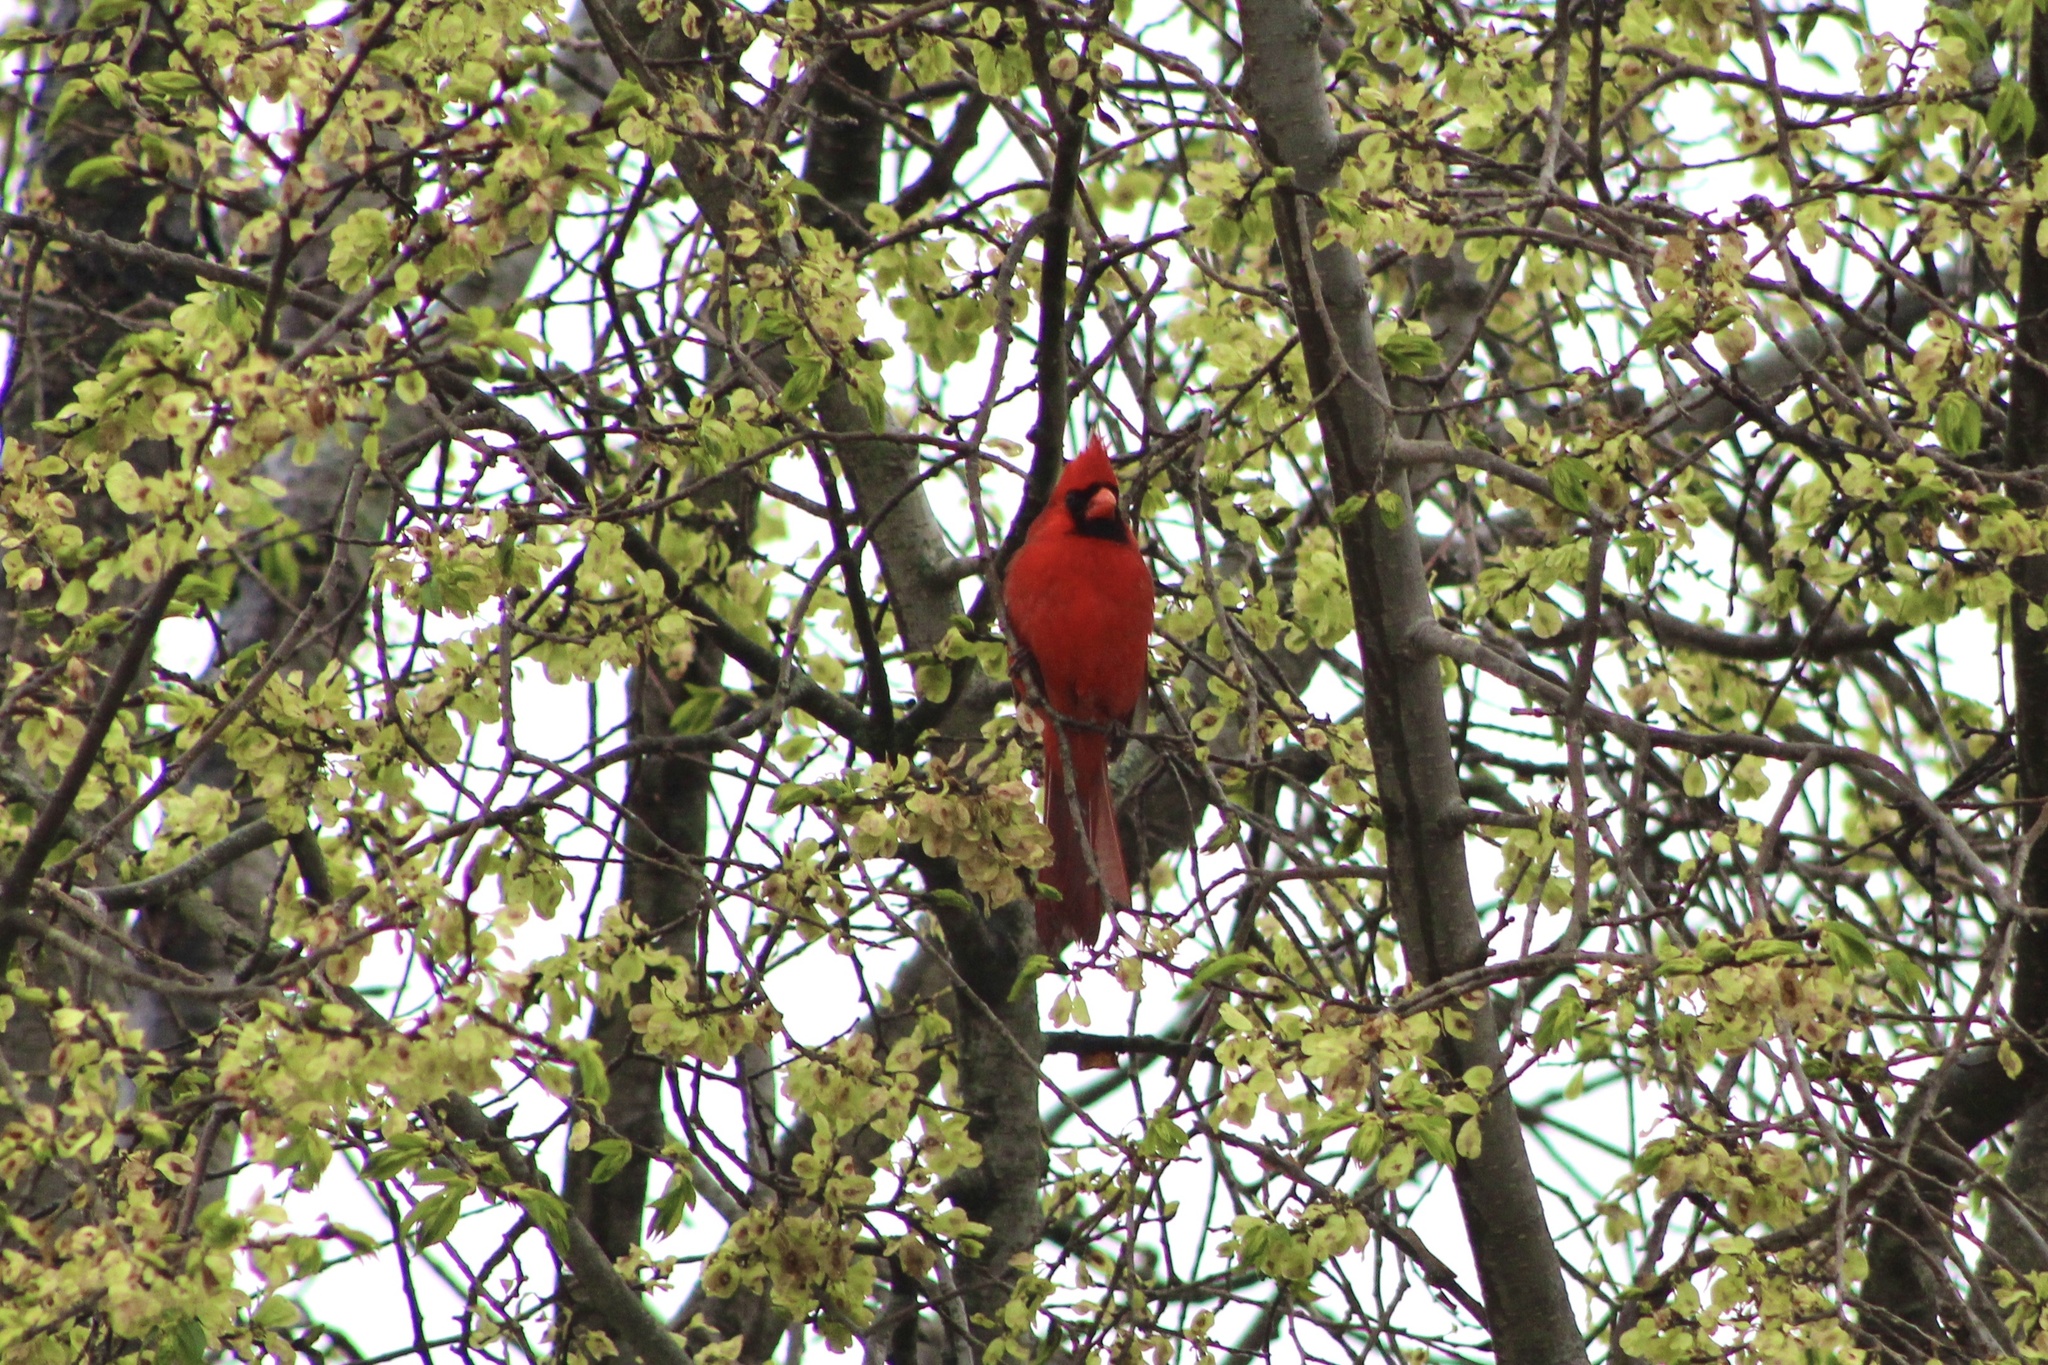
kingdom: Animalia
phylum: Chordata
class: Aves
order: Passeriformes
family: Cardinalidae
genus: Cardinalis
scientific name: Cardinalis cardinalis
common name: Northern cardinal
